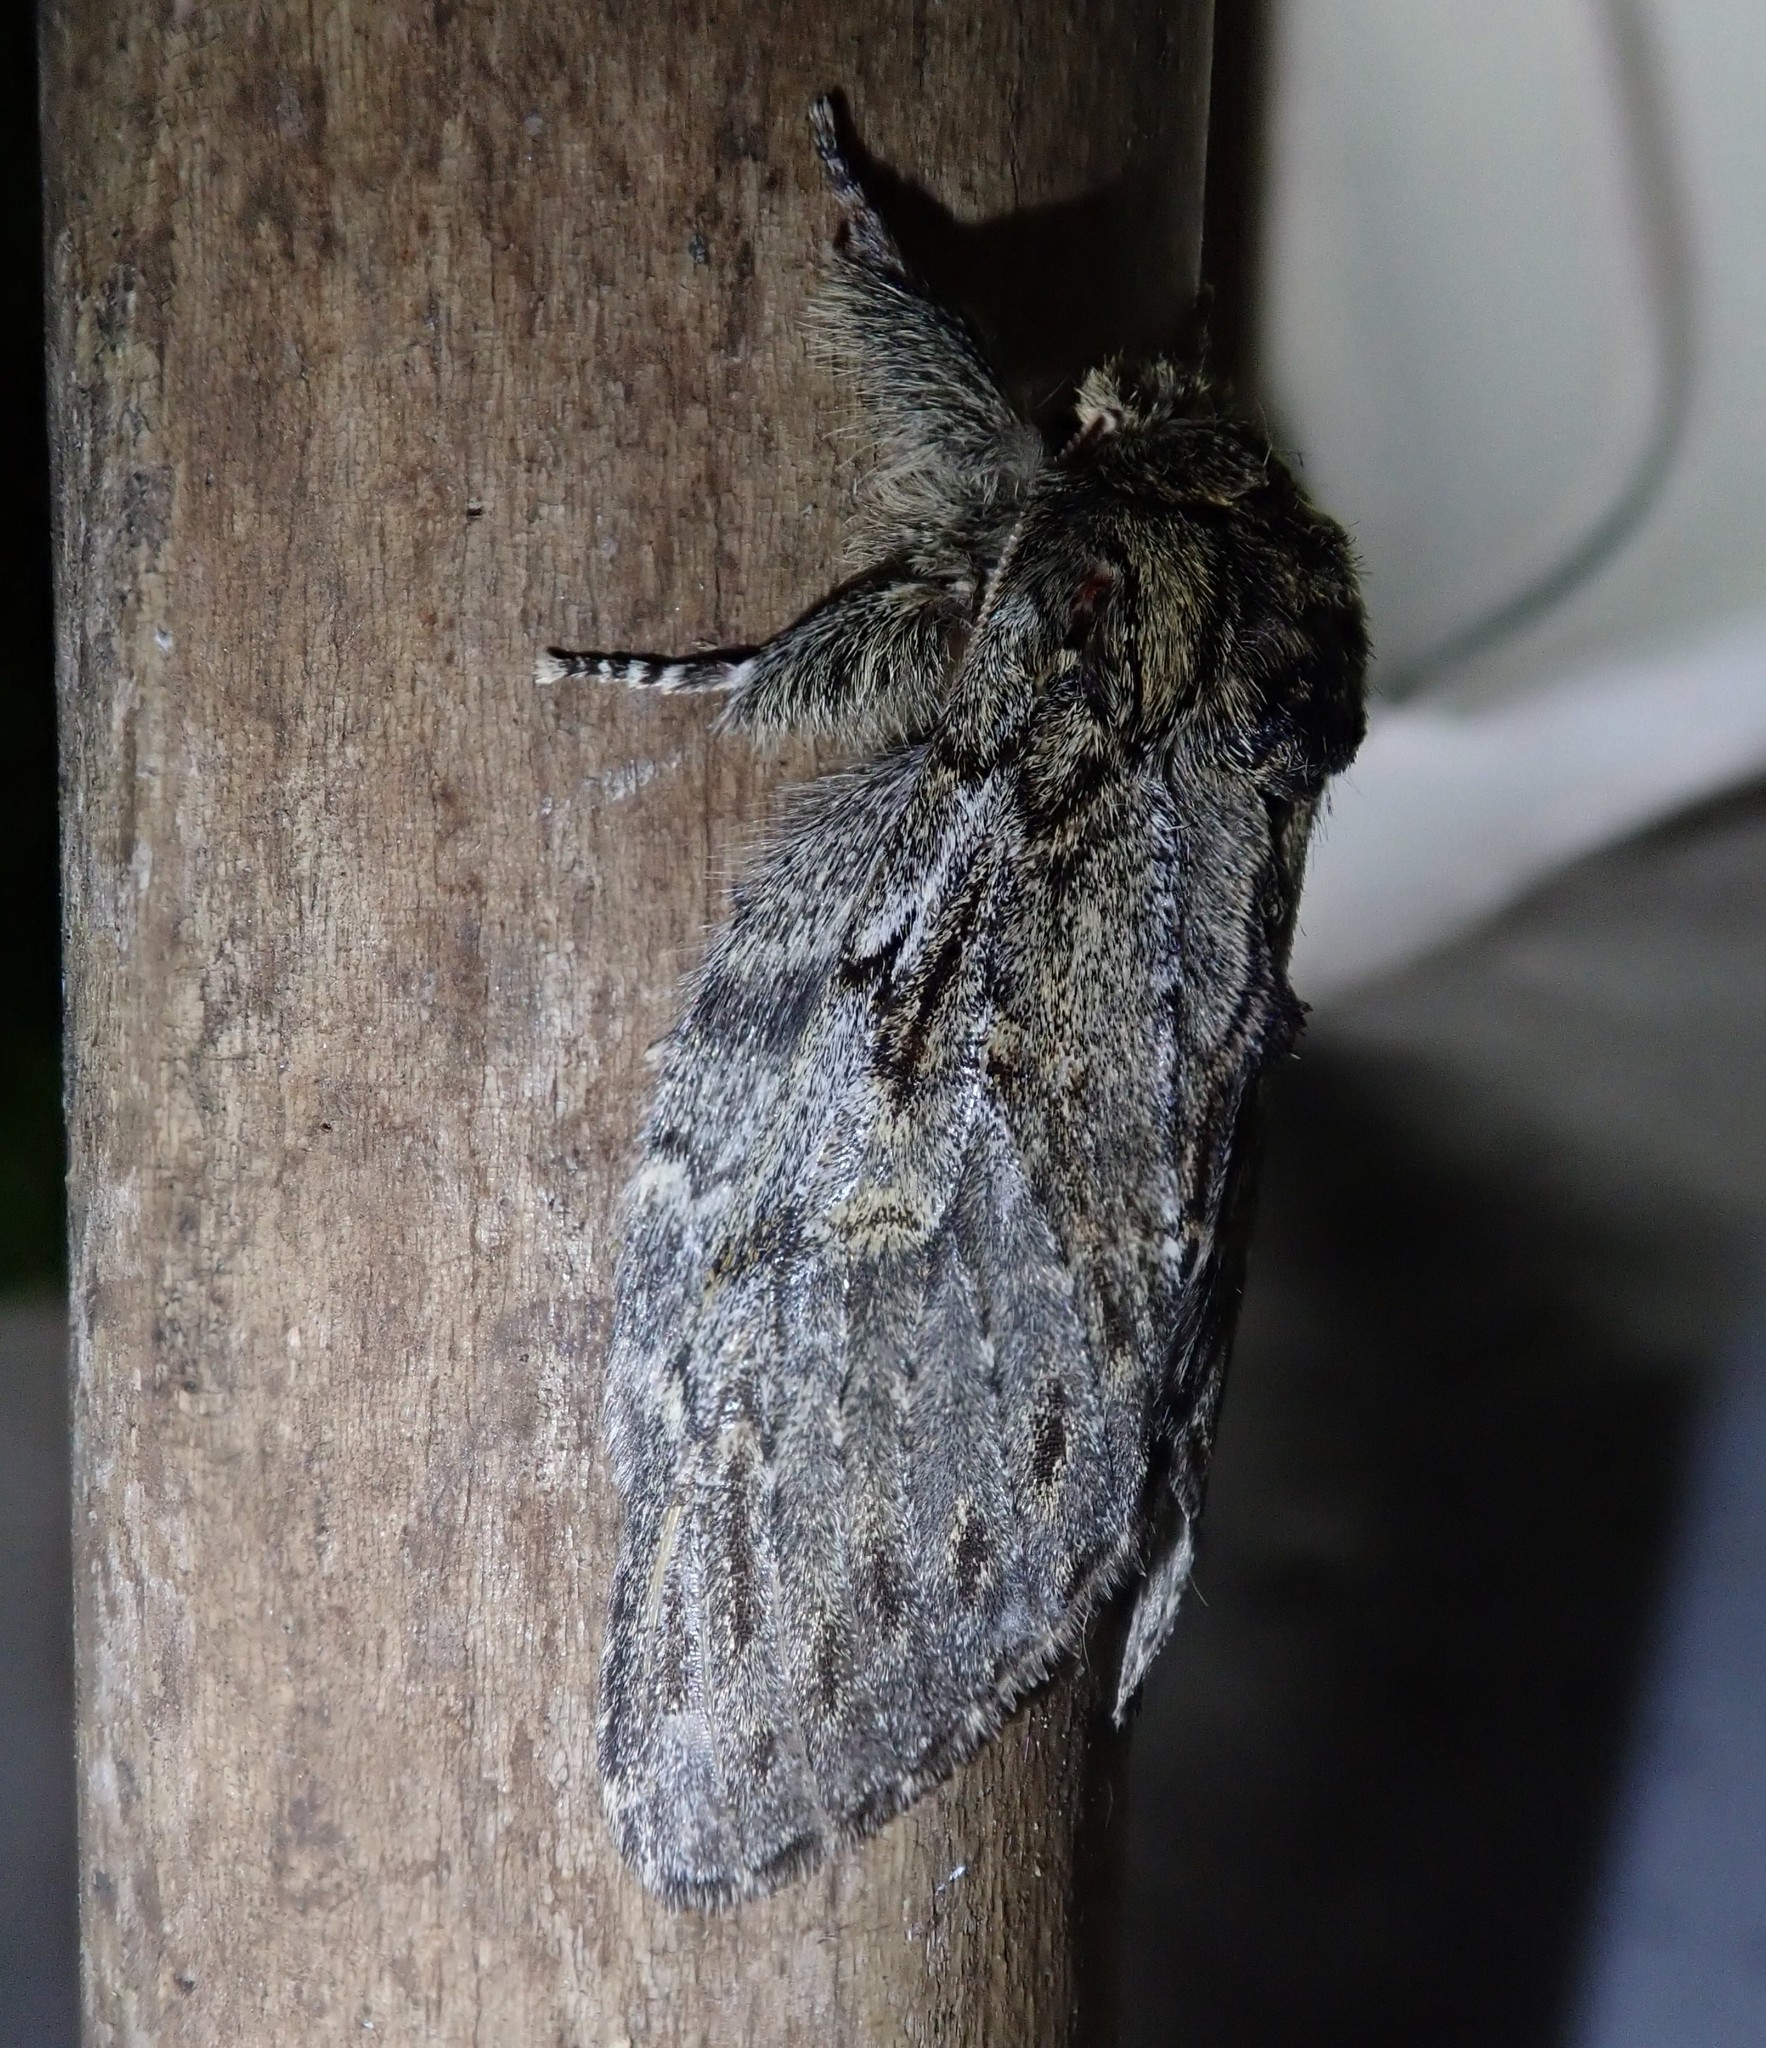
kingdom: Animalia
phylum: Arthropoda
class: Insecta
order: Lepidoptera
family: Notodontidae
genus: Peridea
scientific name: Peridea anceps
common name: Great prominent
